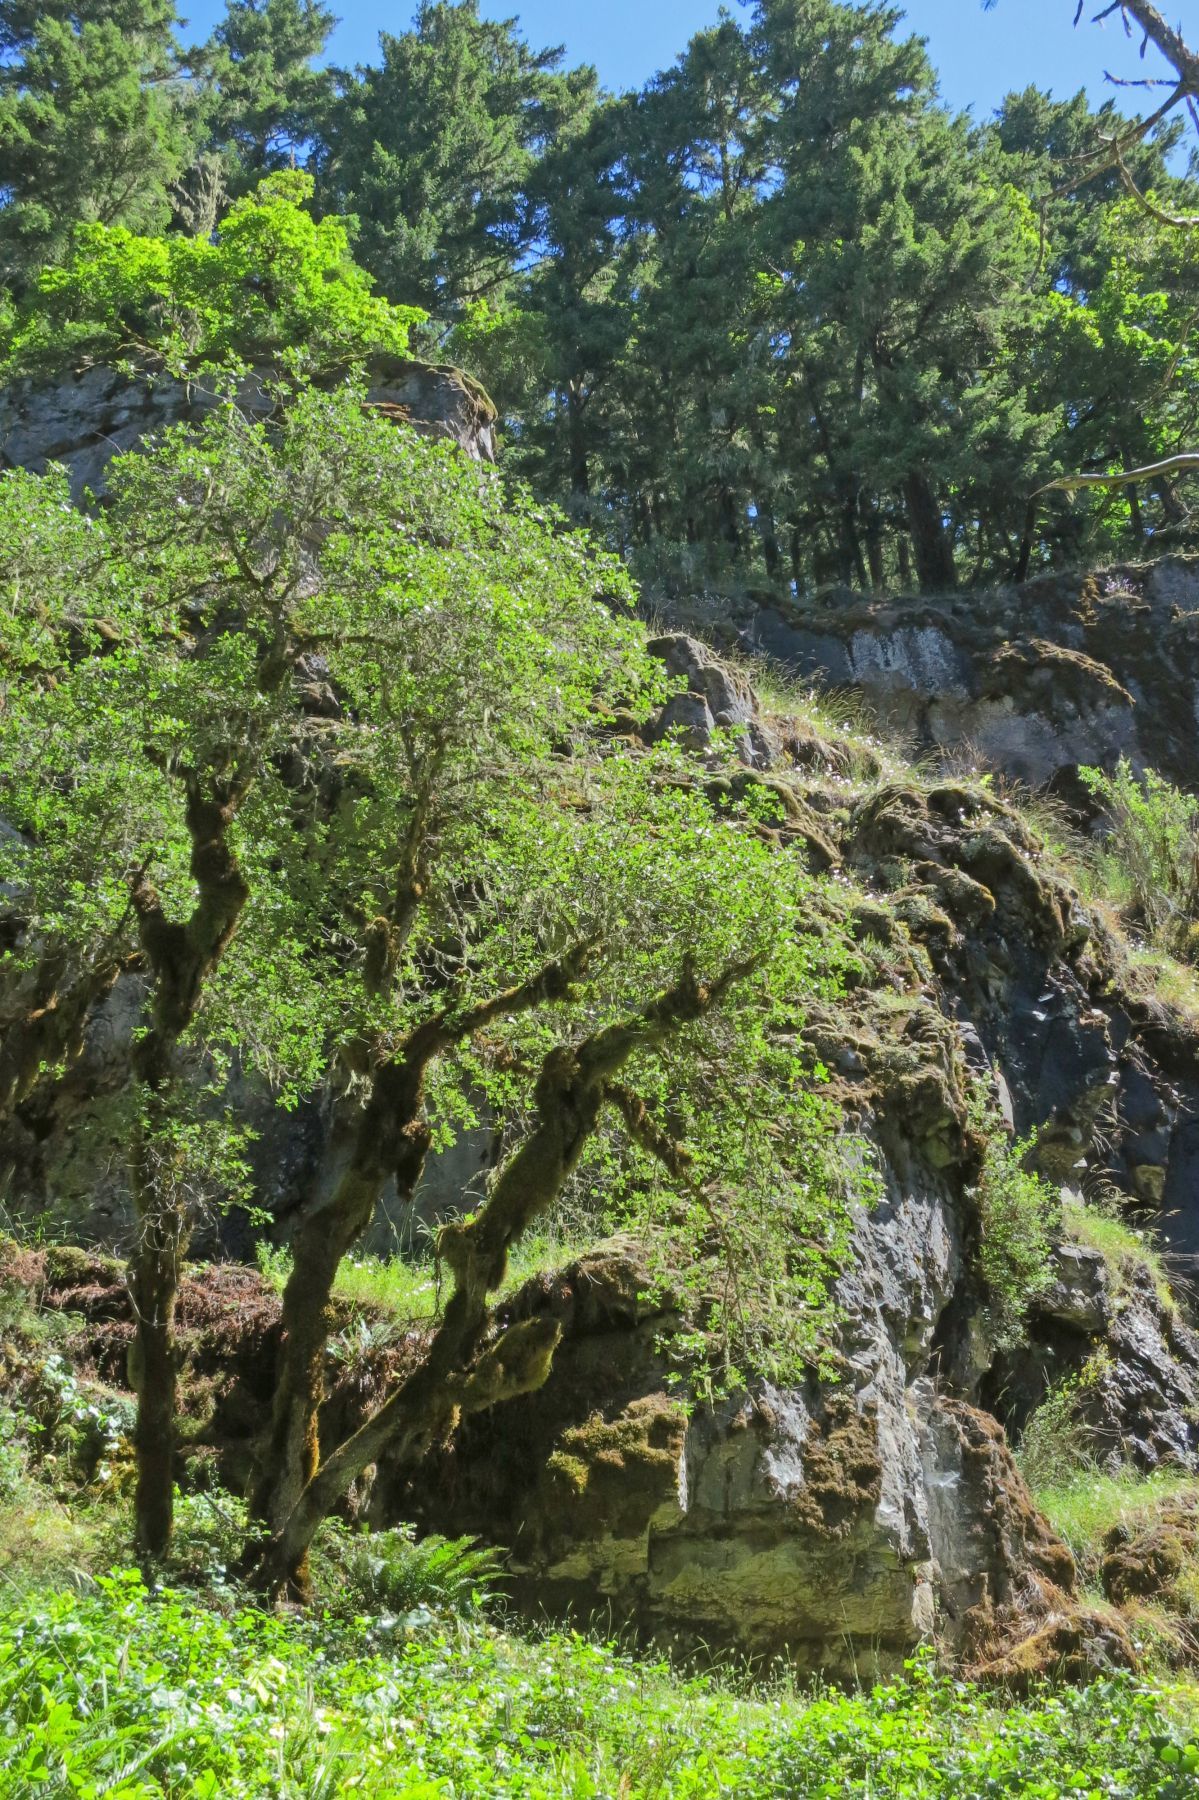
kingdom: Plantae
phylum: Tracheophyta
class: Magnoliopsida
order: Fagales
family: Fagaceae
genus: Quercus
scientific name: Quercus garryana
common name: Garry oak
